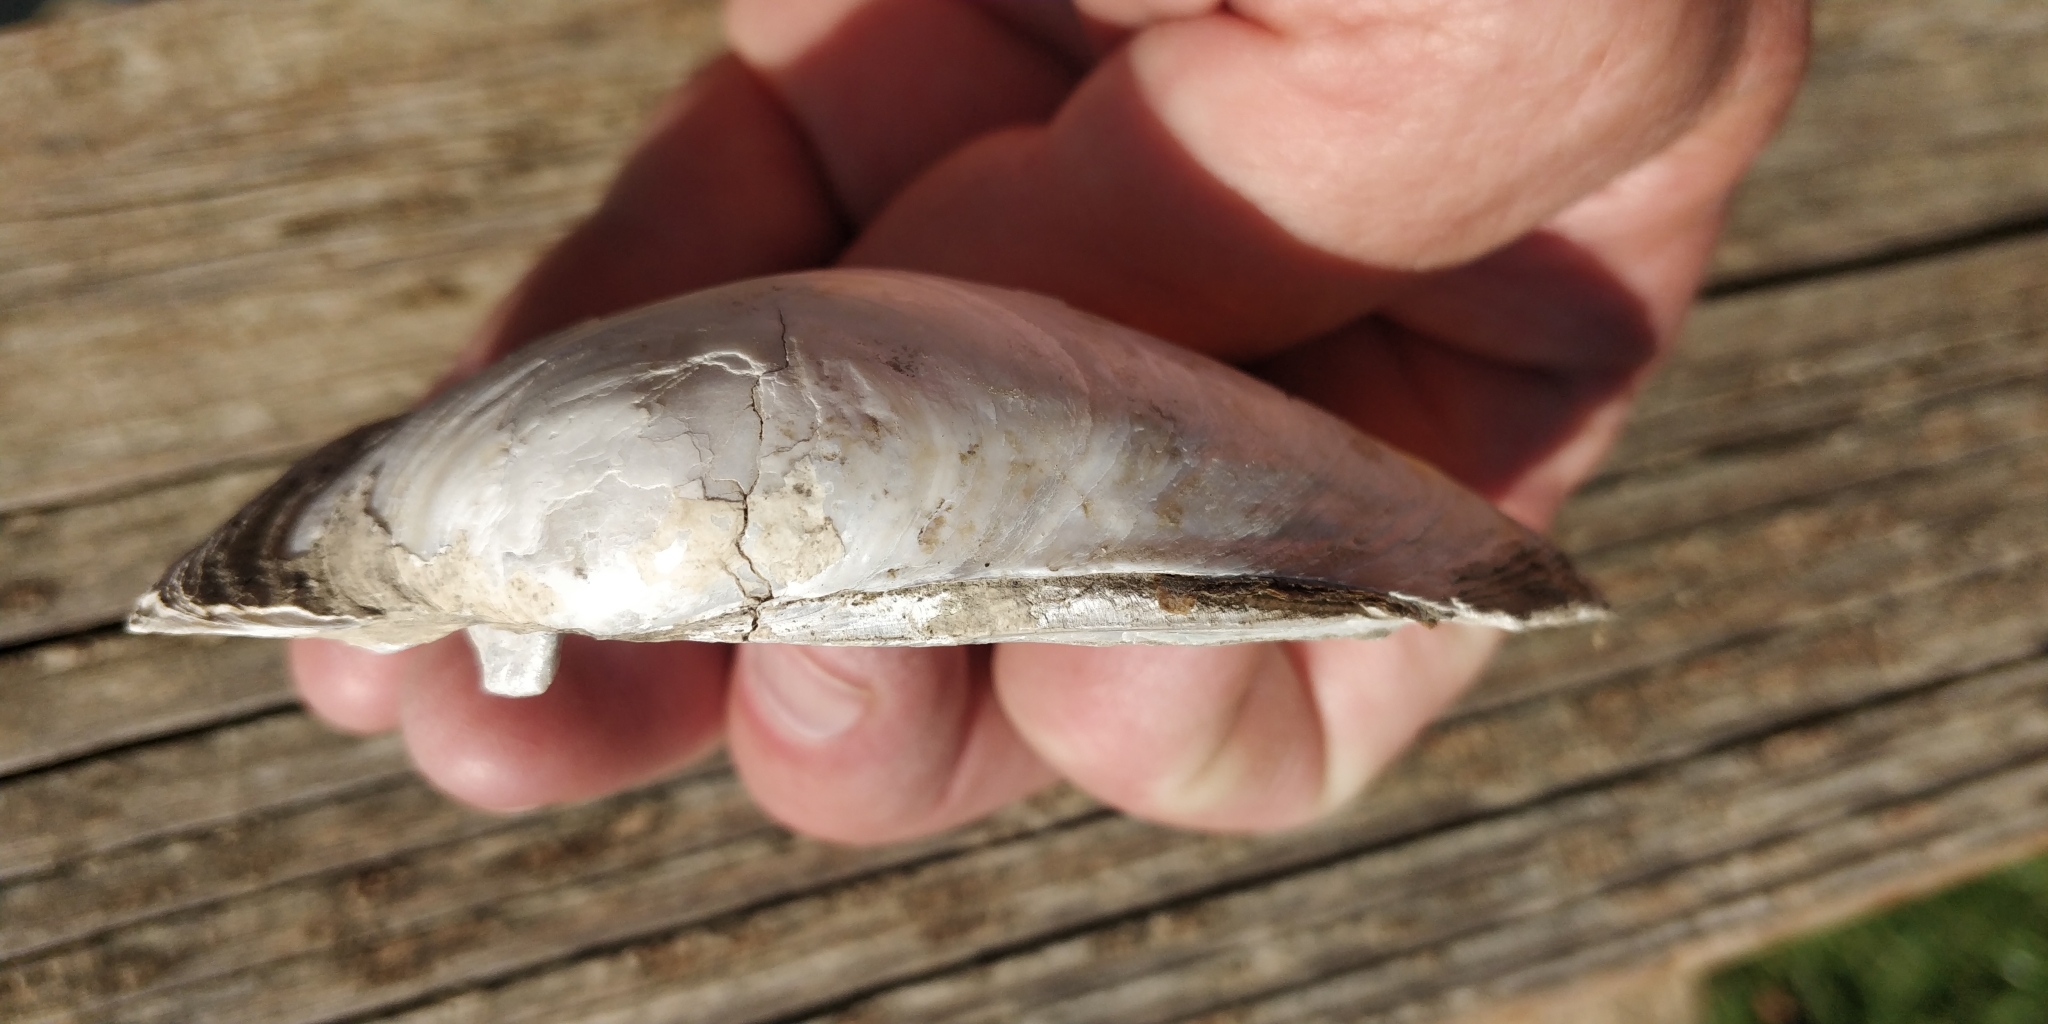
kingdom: Animalia
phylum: Mollusca
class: Bivalvia
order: Unionida
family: Unionidae
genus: Lampsilis
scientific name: Lampsilis cardium
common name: Plain pocketbook
